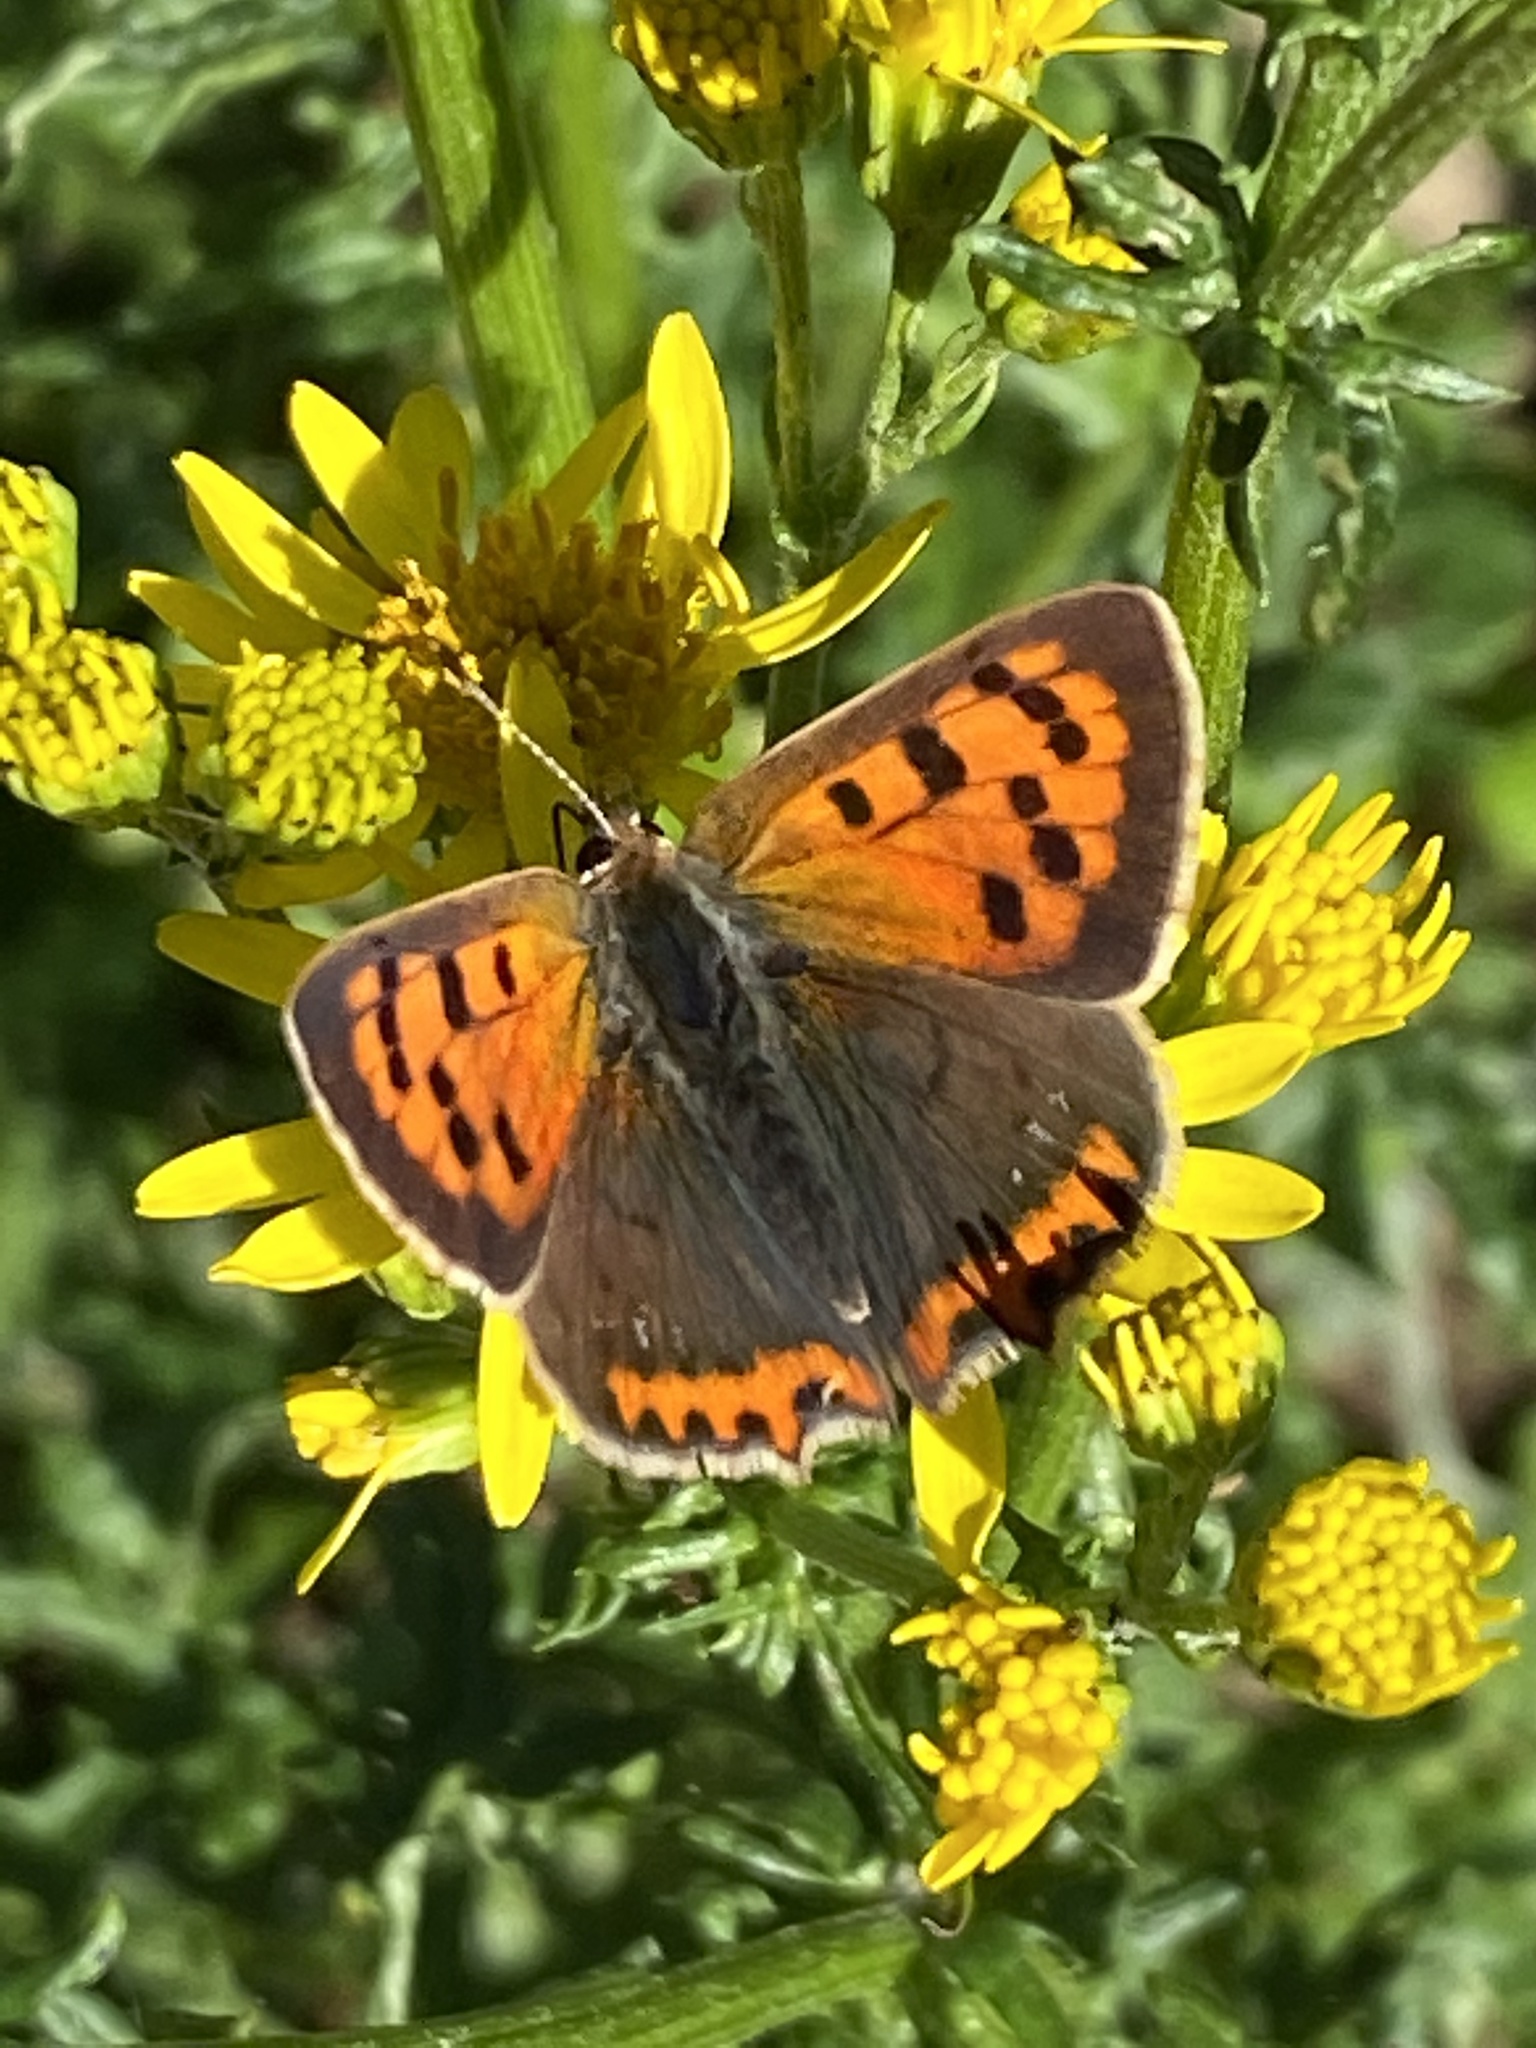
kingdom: Animalia
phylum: Arthropoda
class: Insecta
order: Lepidoptera
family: Lycaenidae
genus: Lycaena
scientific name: Lycaena phlaeas
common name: Small copper
